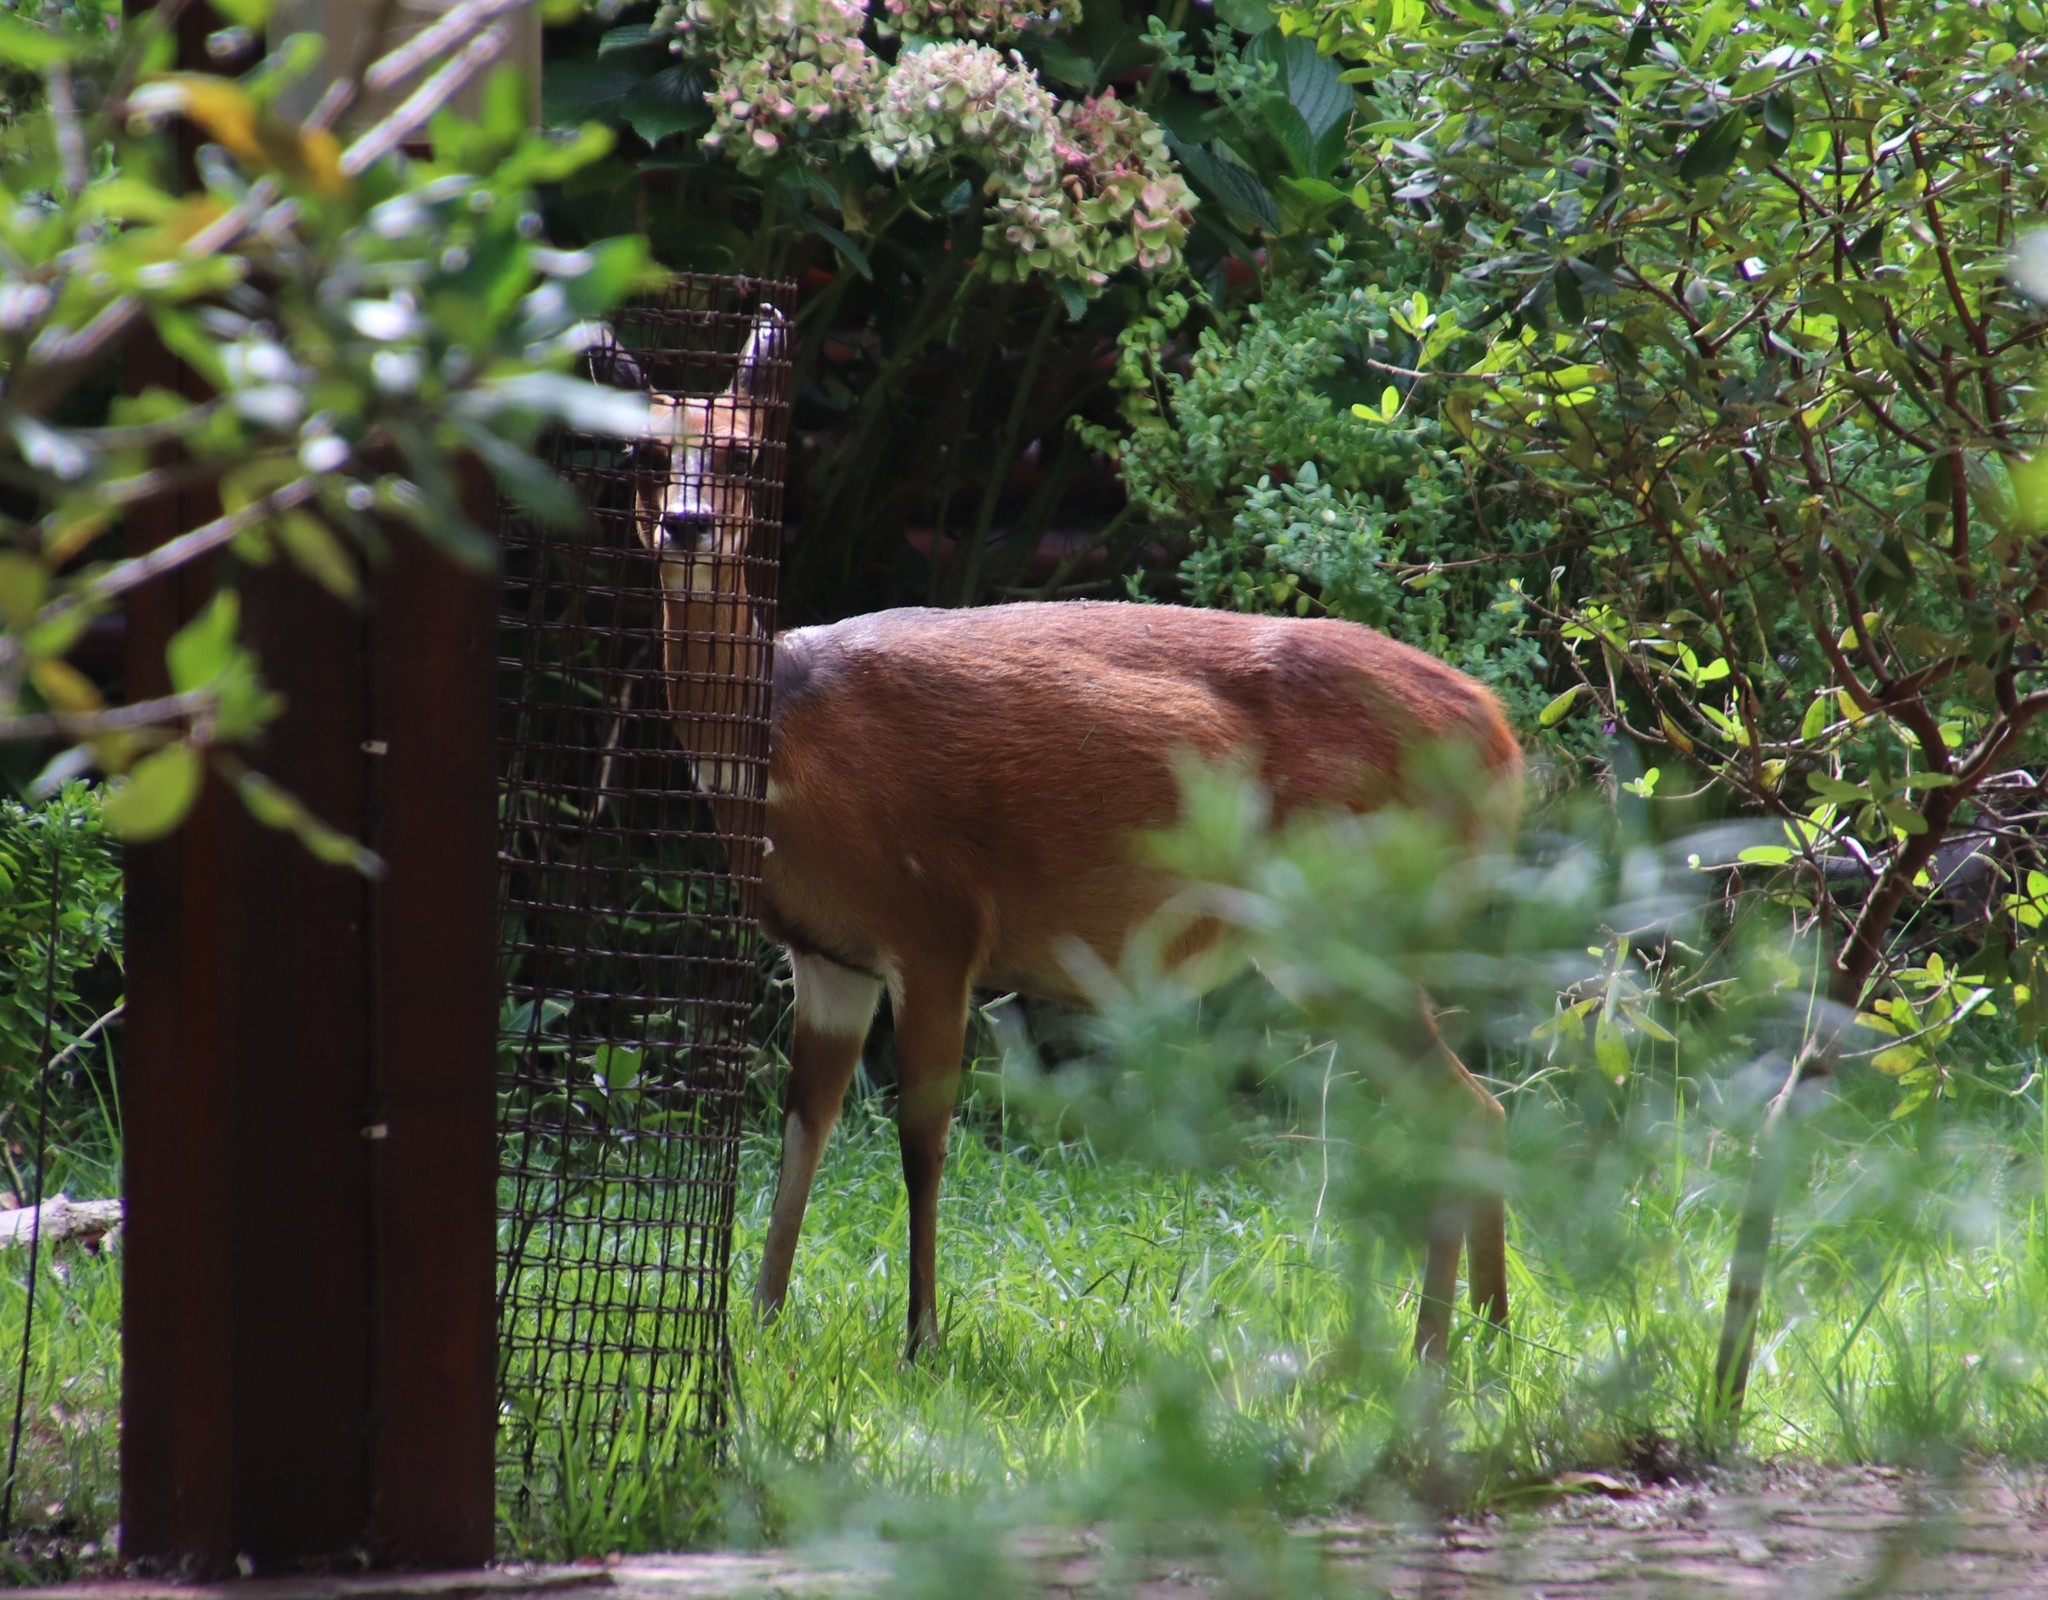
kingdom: Animalia
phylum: Chordata
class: Mammalia
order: Artiodactyla
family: Bovidae
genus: Tragelaphus
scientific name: Tragelaphus scriptus
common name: Bushbuck
